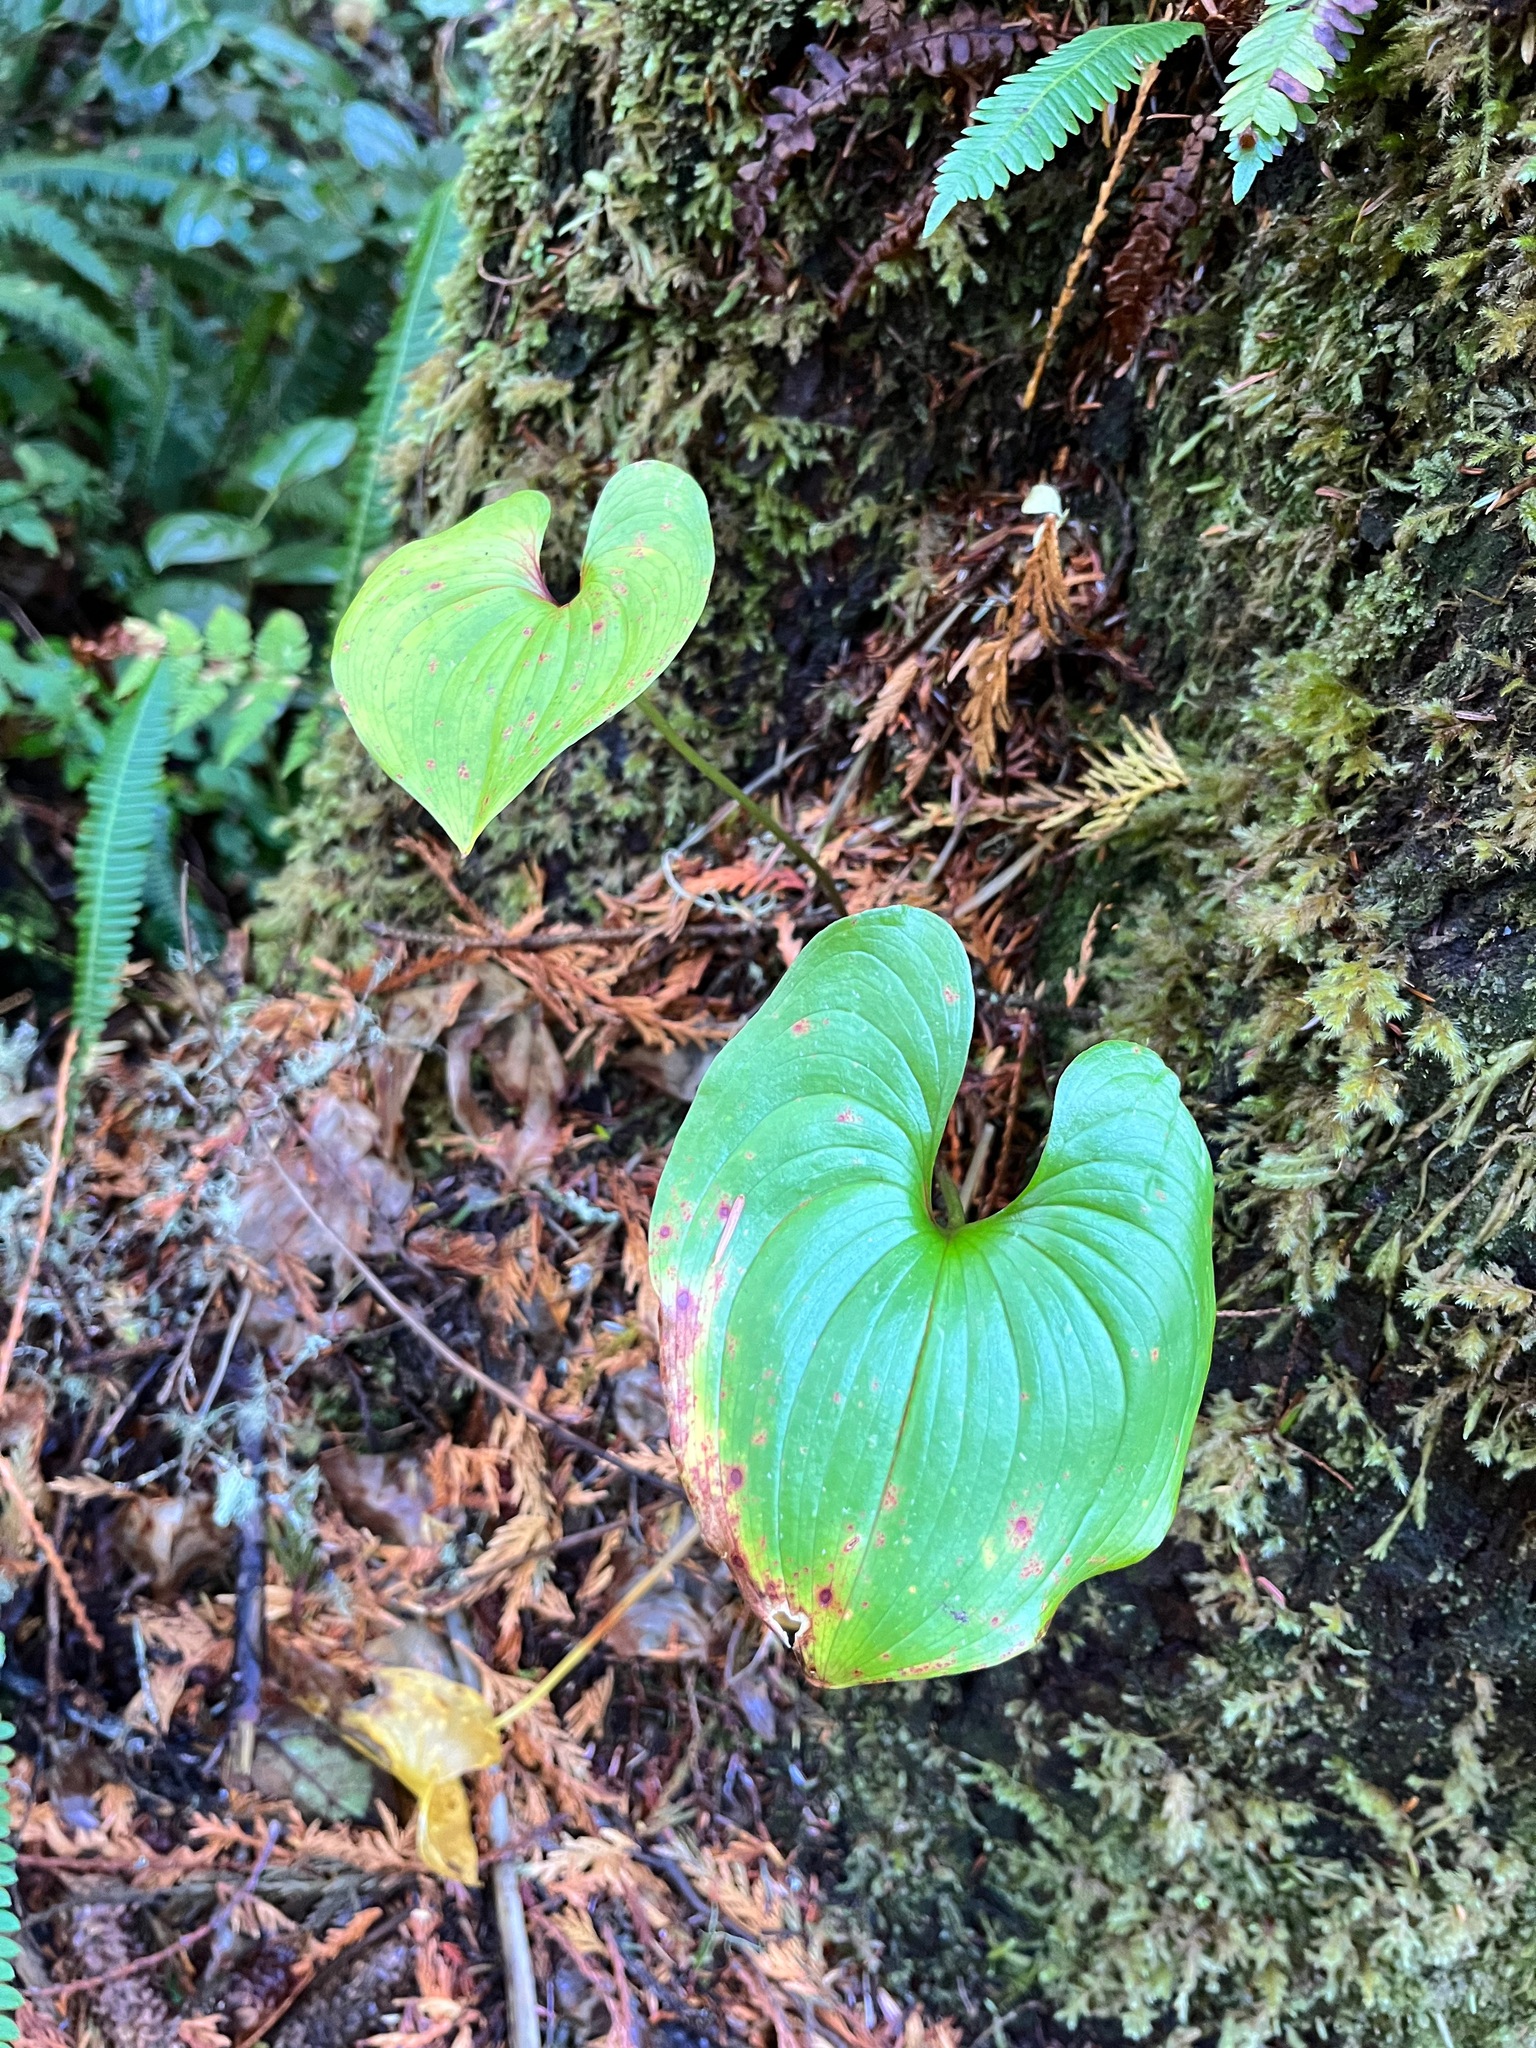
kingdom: Plantae
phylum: Tracheophyta
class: Liliopsida
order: Asparagales
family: Asparagaceae
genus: Maianthemum
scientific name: Maianthemum dilatatum
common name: False lily-of-the-valley
